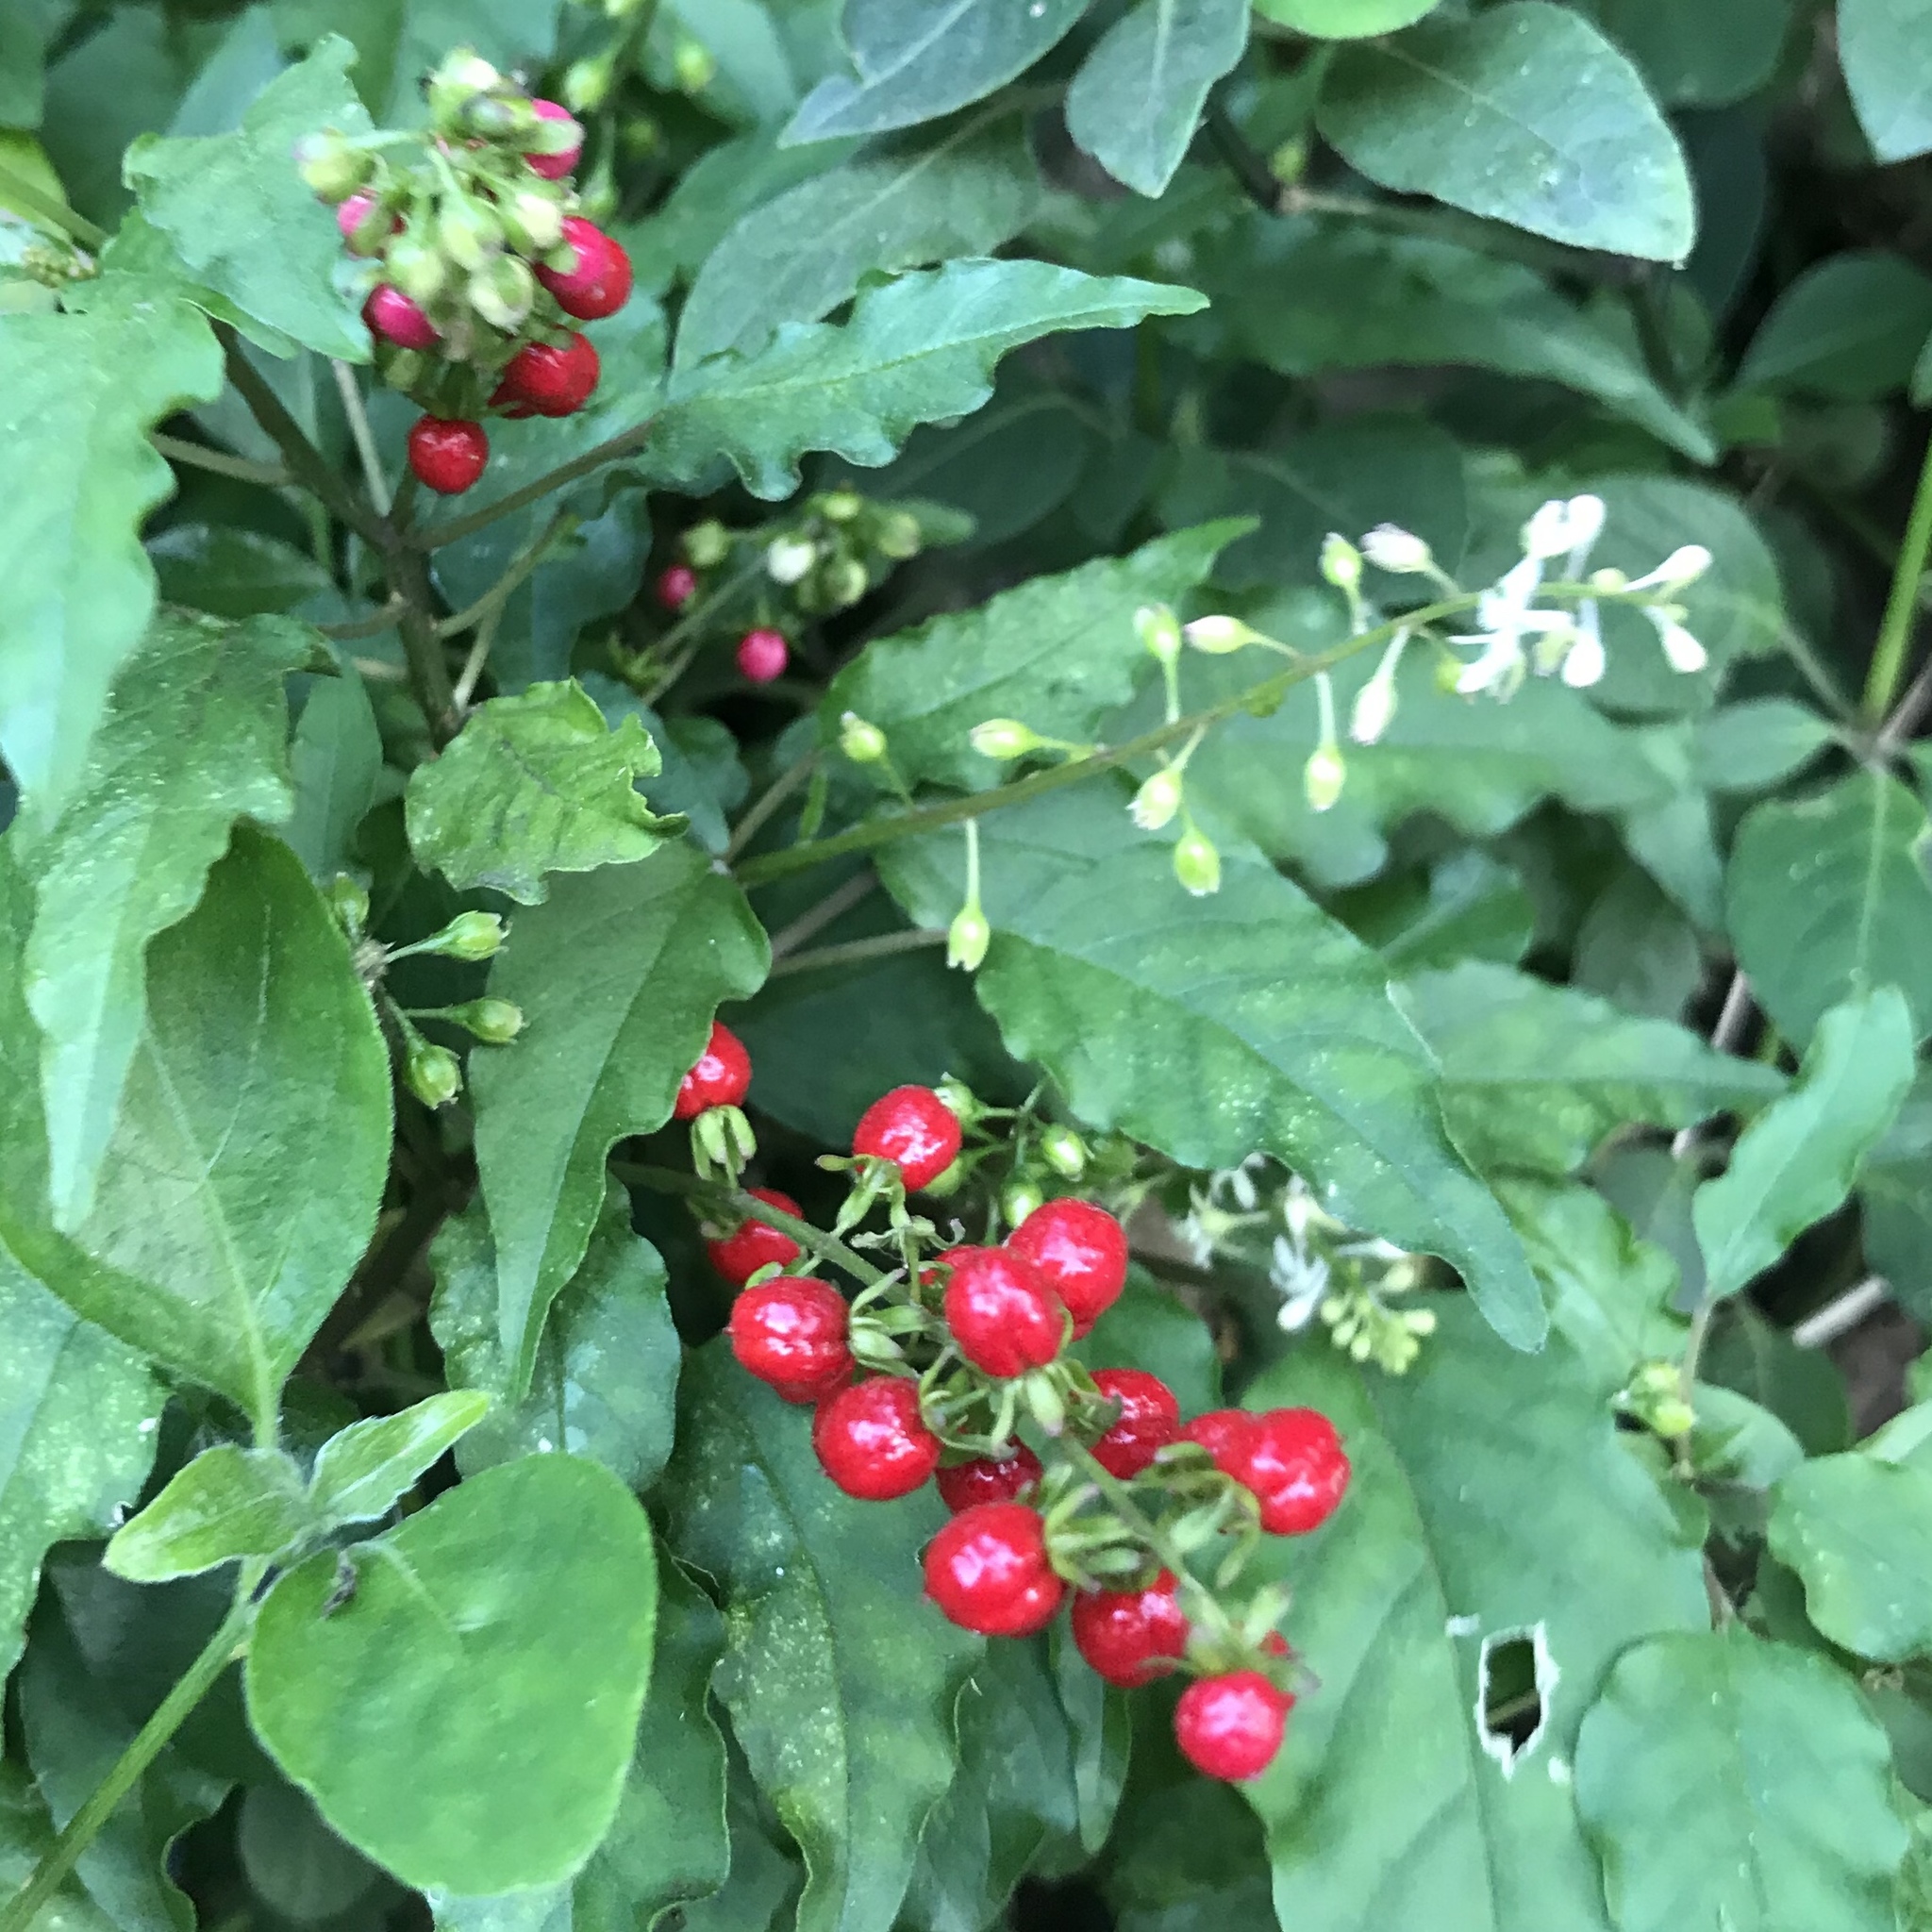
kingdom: Plantae
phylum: Tracheophyta
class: Magnoliopsida
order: Caryophyllales
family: Phytolaccaceae
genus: Rivina
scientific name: Rivina humilis
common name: Rougeplant
